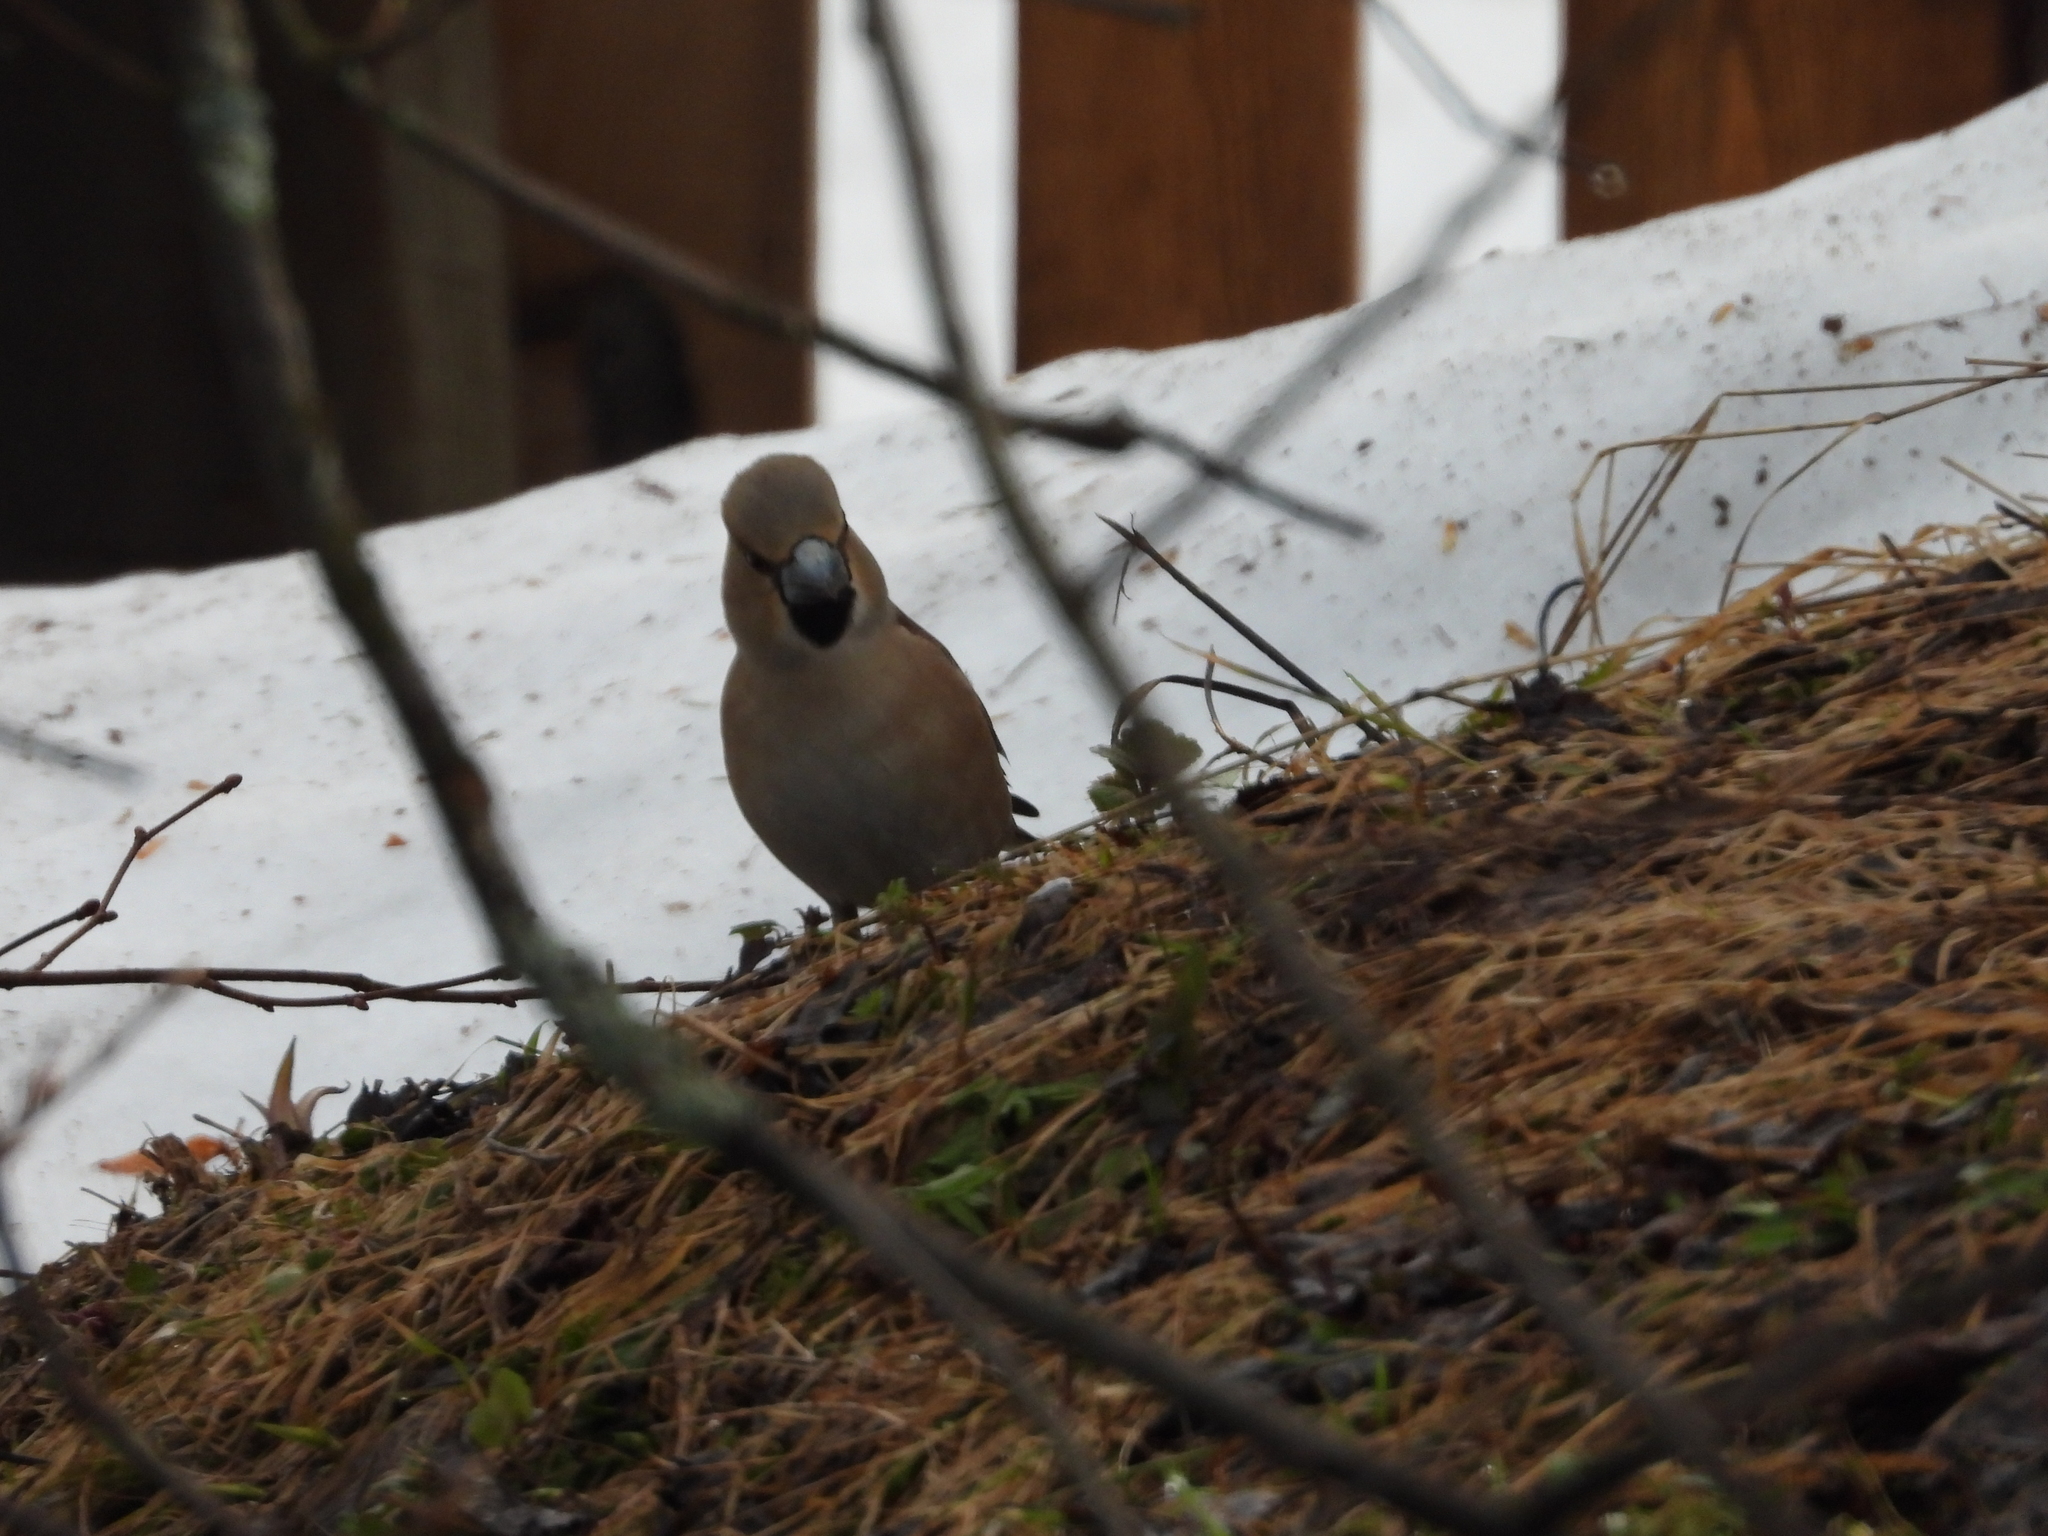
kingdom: Animalia
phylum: Chordata
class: Aves
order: Passeriformes
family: Fringillidae
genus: Coccothraustes
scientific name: Coccothraustes coccothraustes
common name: Hawfinch
